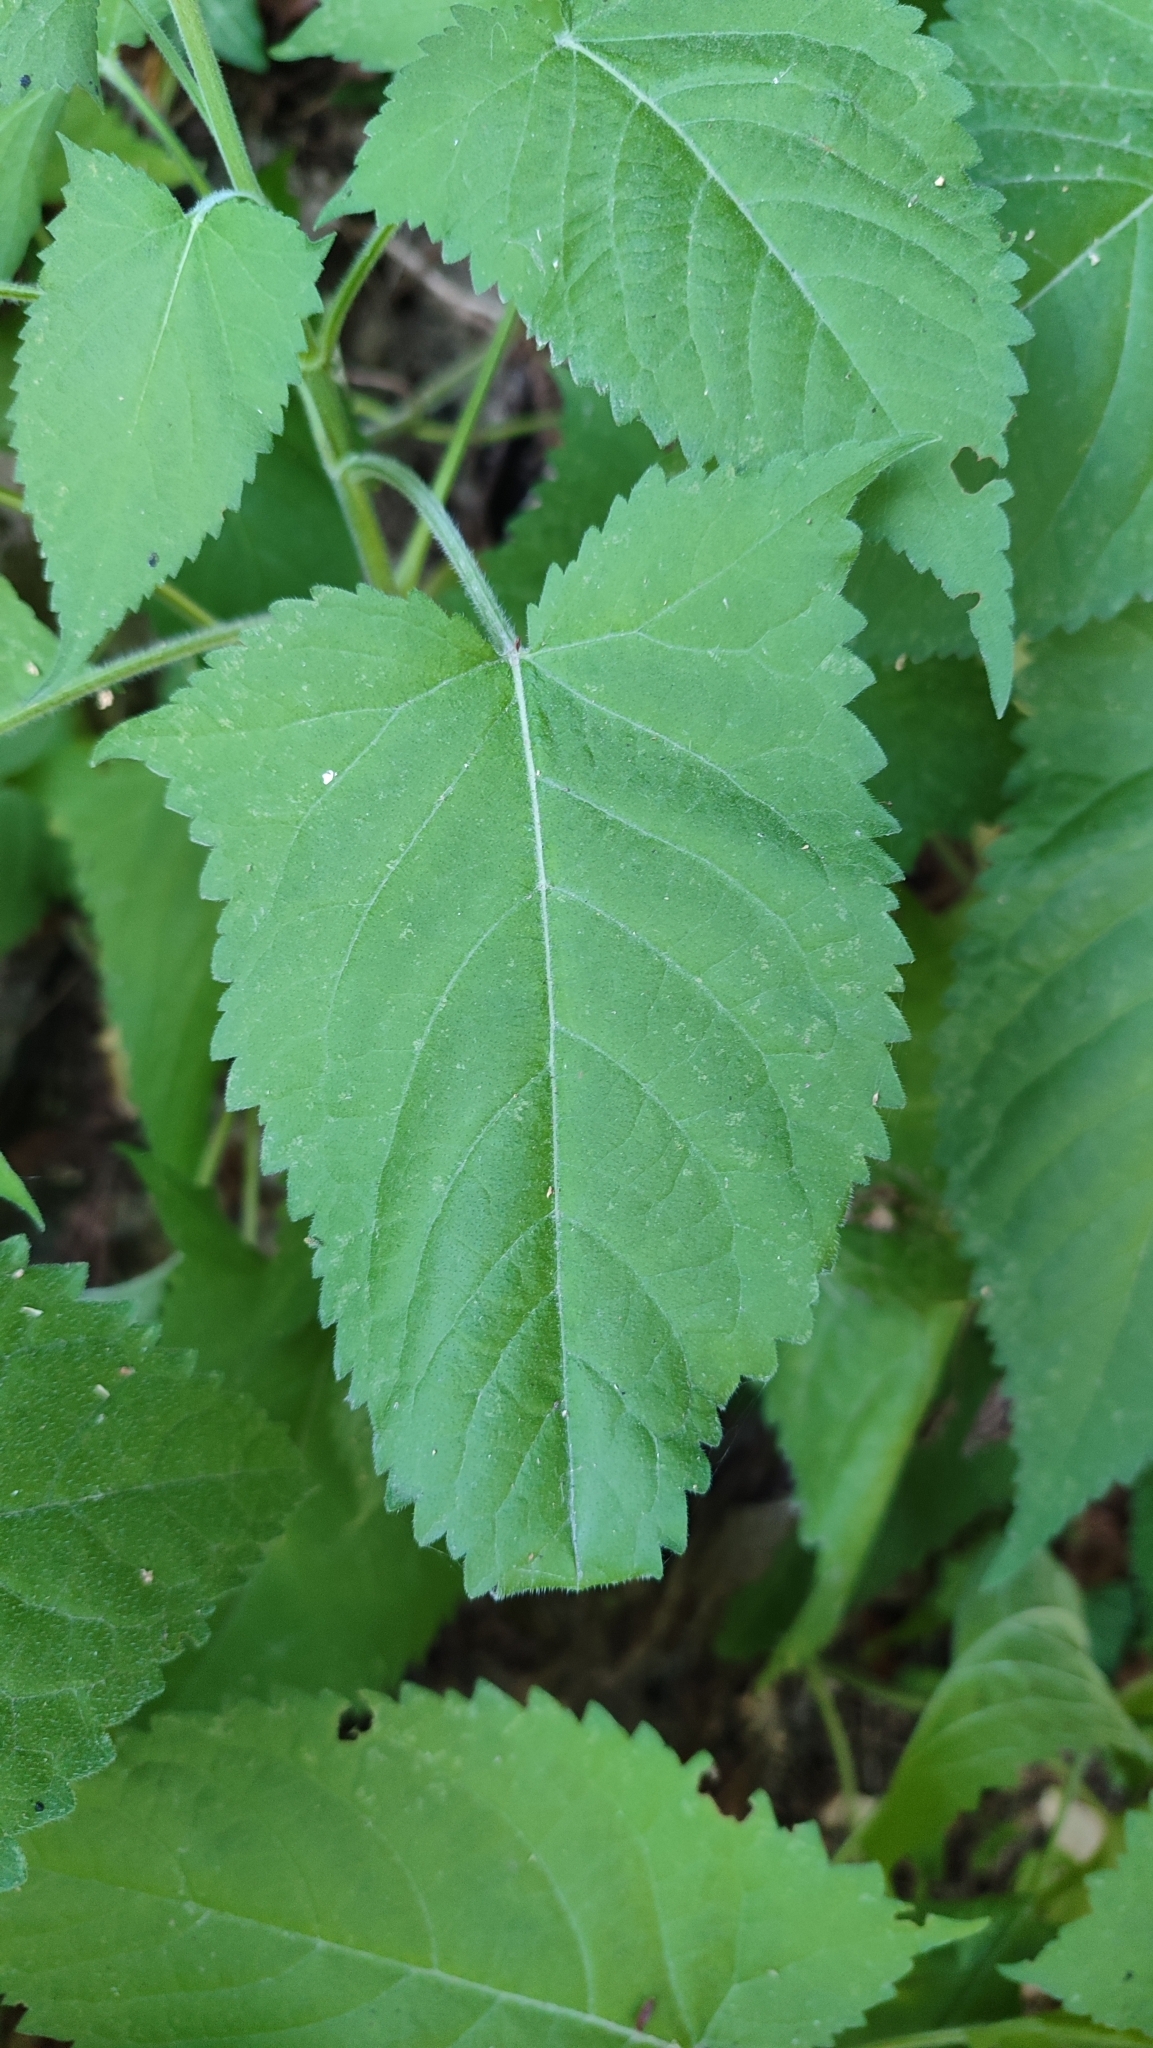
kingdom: Plantae
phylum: Tracheophyta
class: Magnoliopsida
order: Lamiales
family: Lamiaceae
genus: Salvia
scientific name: Salvia glutinosa
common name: Sticky clary
